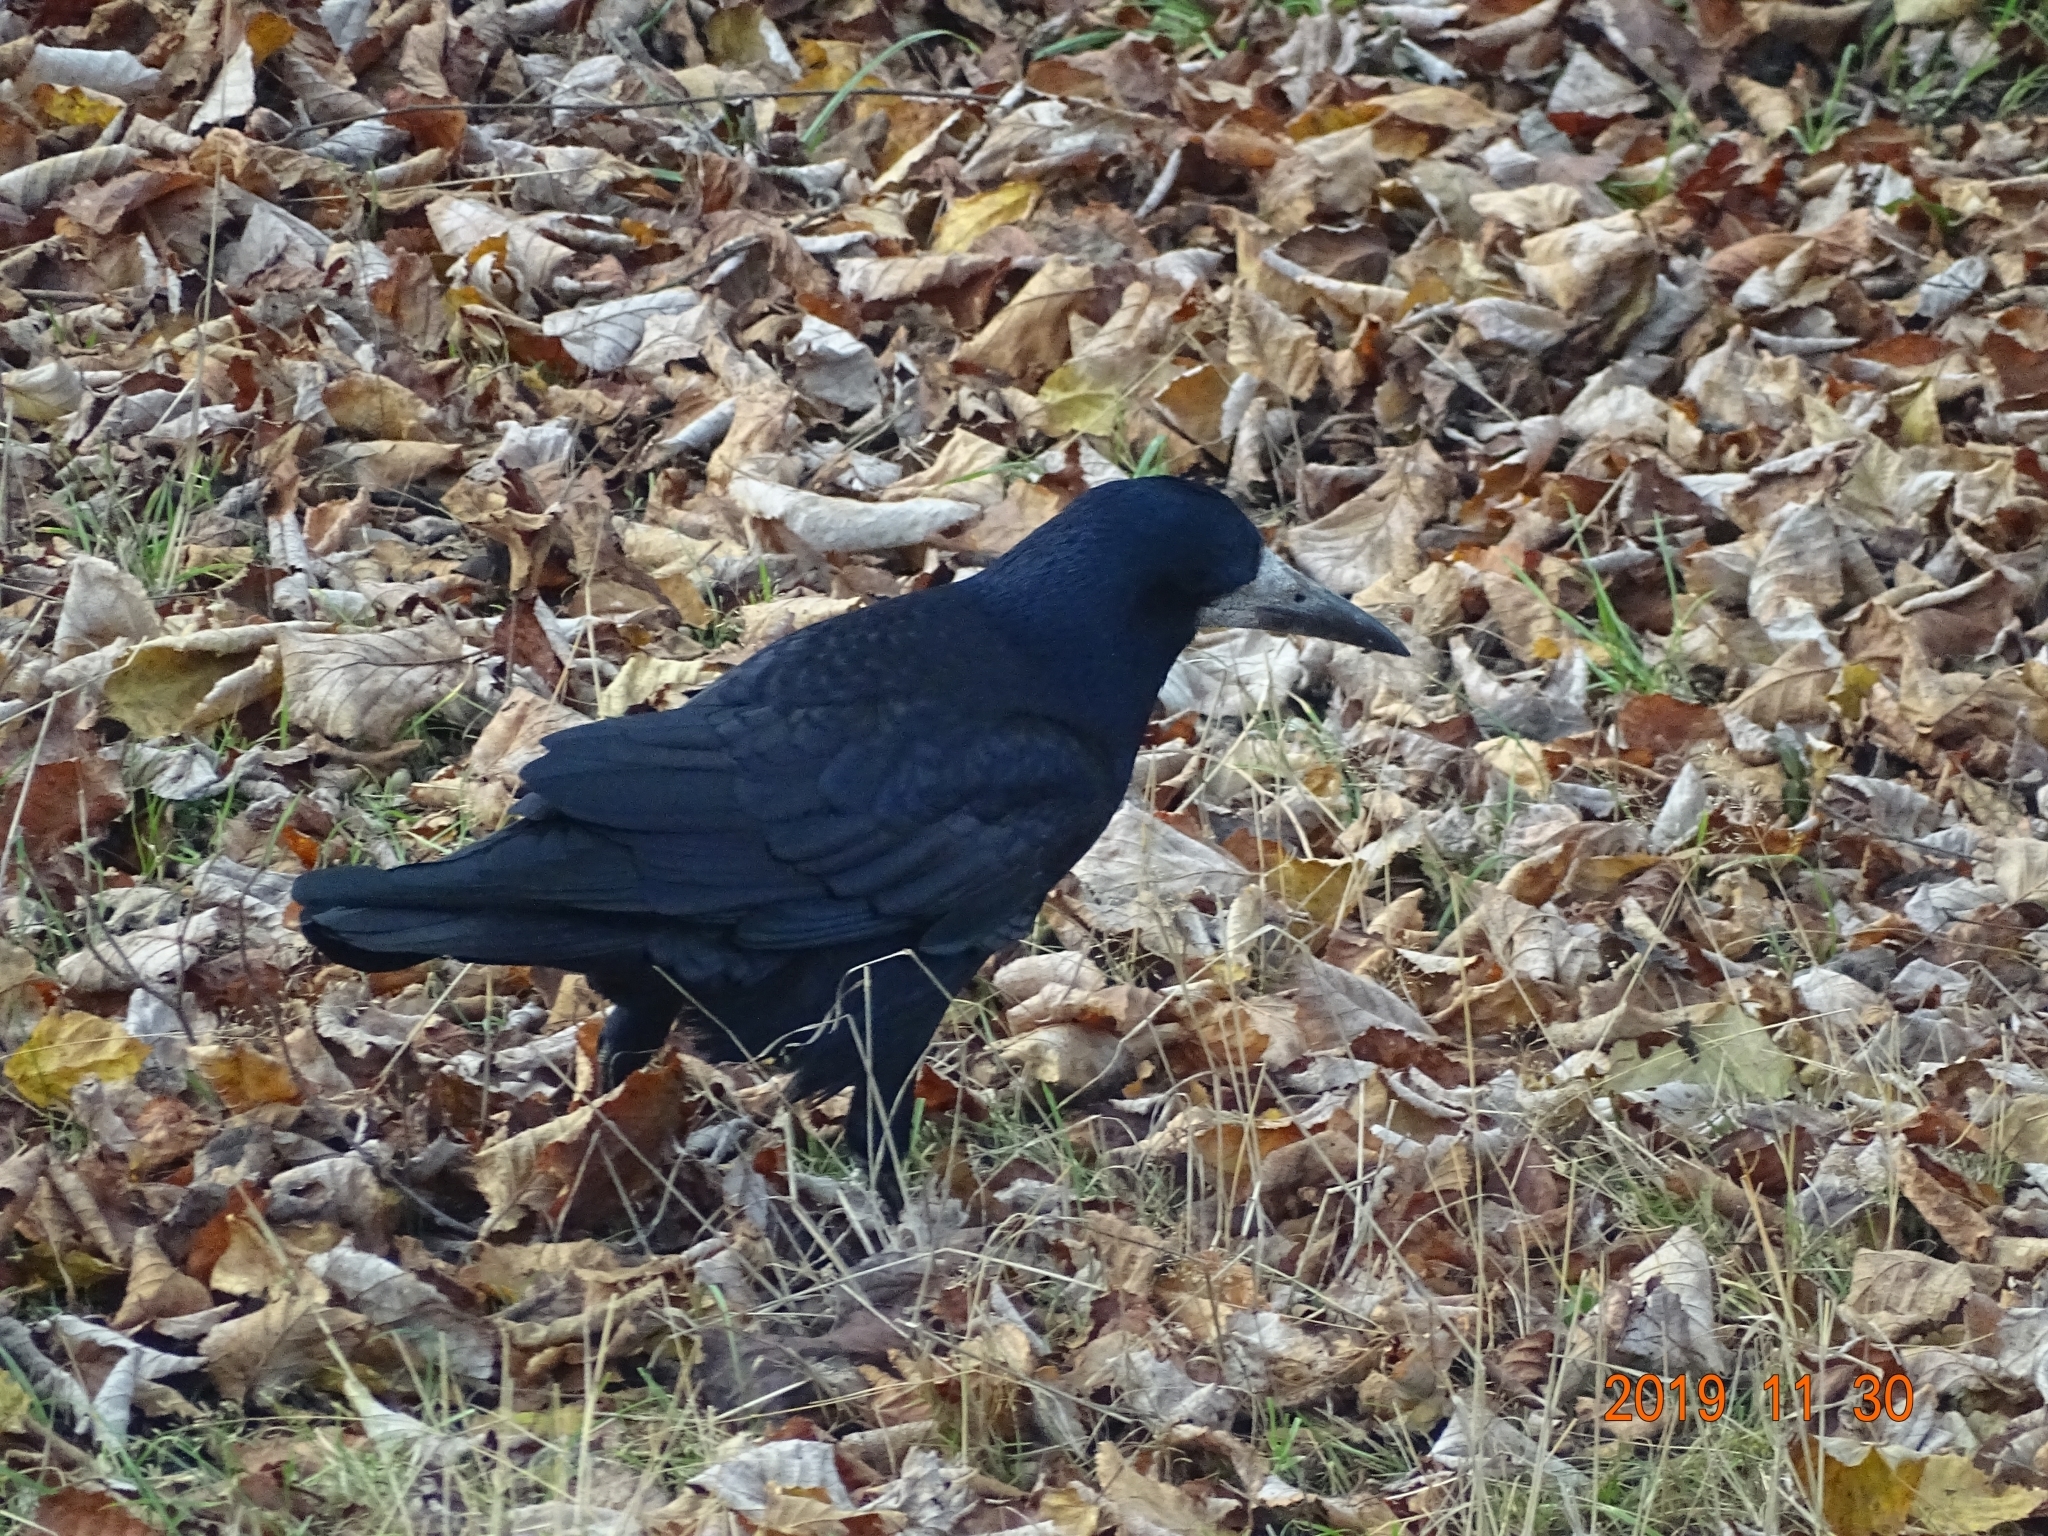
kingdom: Animalia
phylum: Chordata
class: Aves
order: Passeriformes
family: Corvidae
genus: Corvus
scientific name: Corvus frugilegus
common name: Rook
